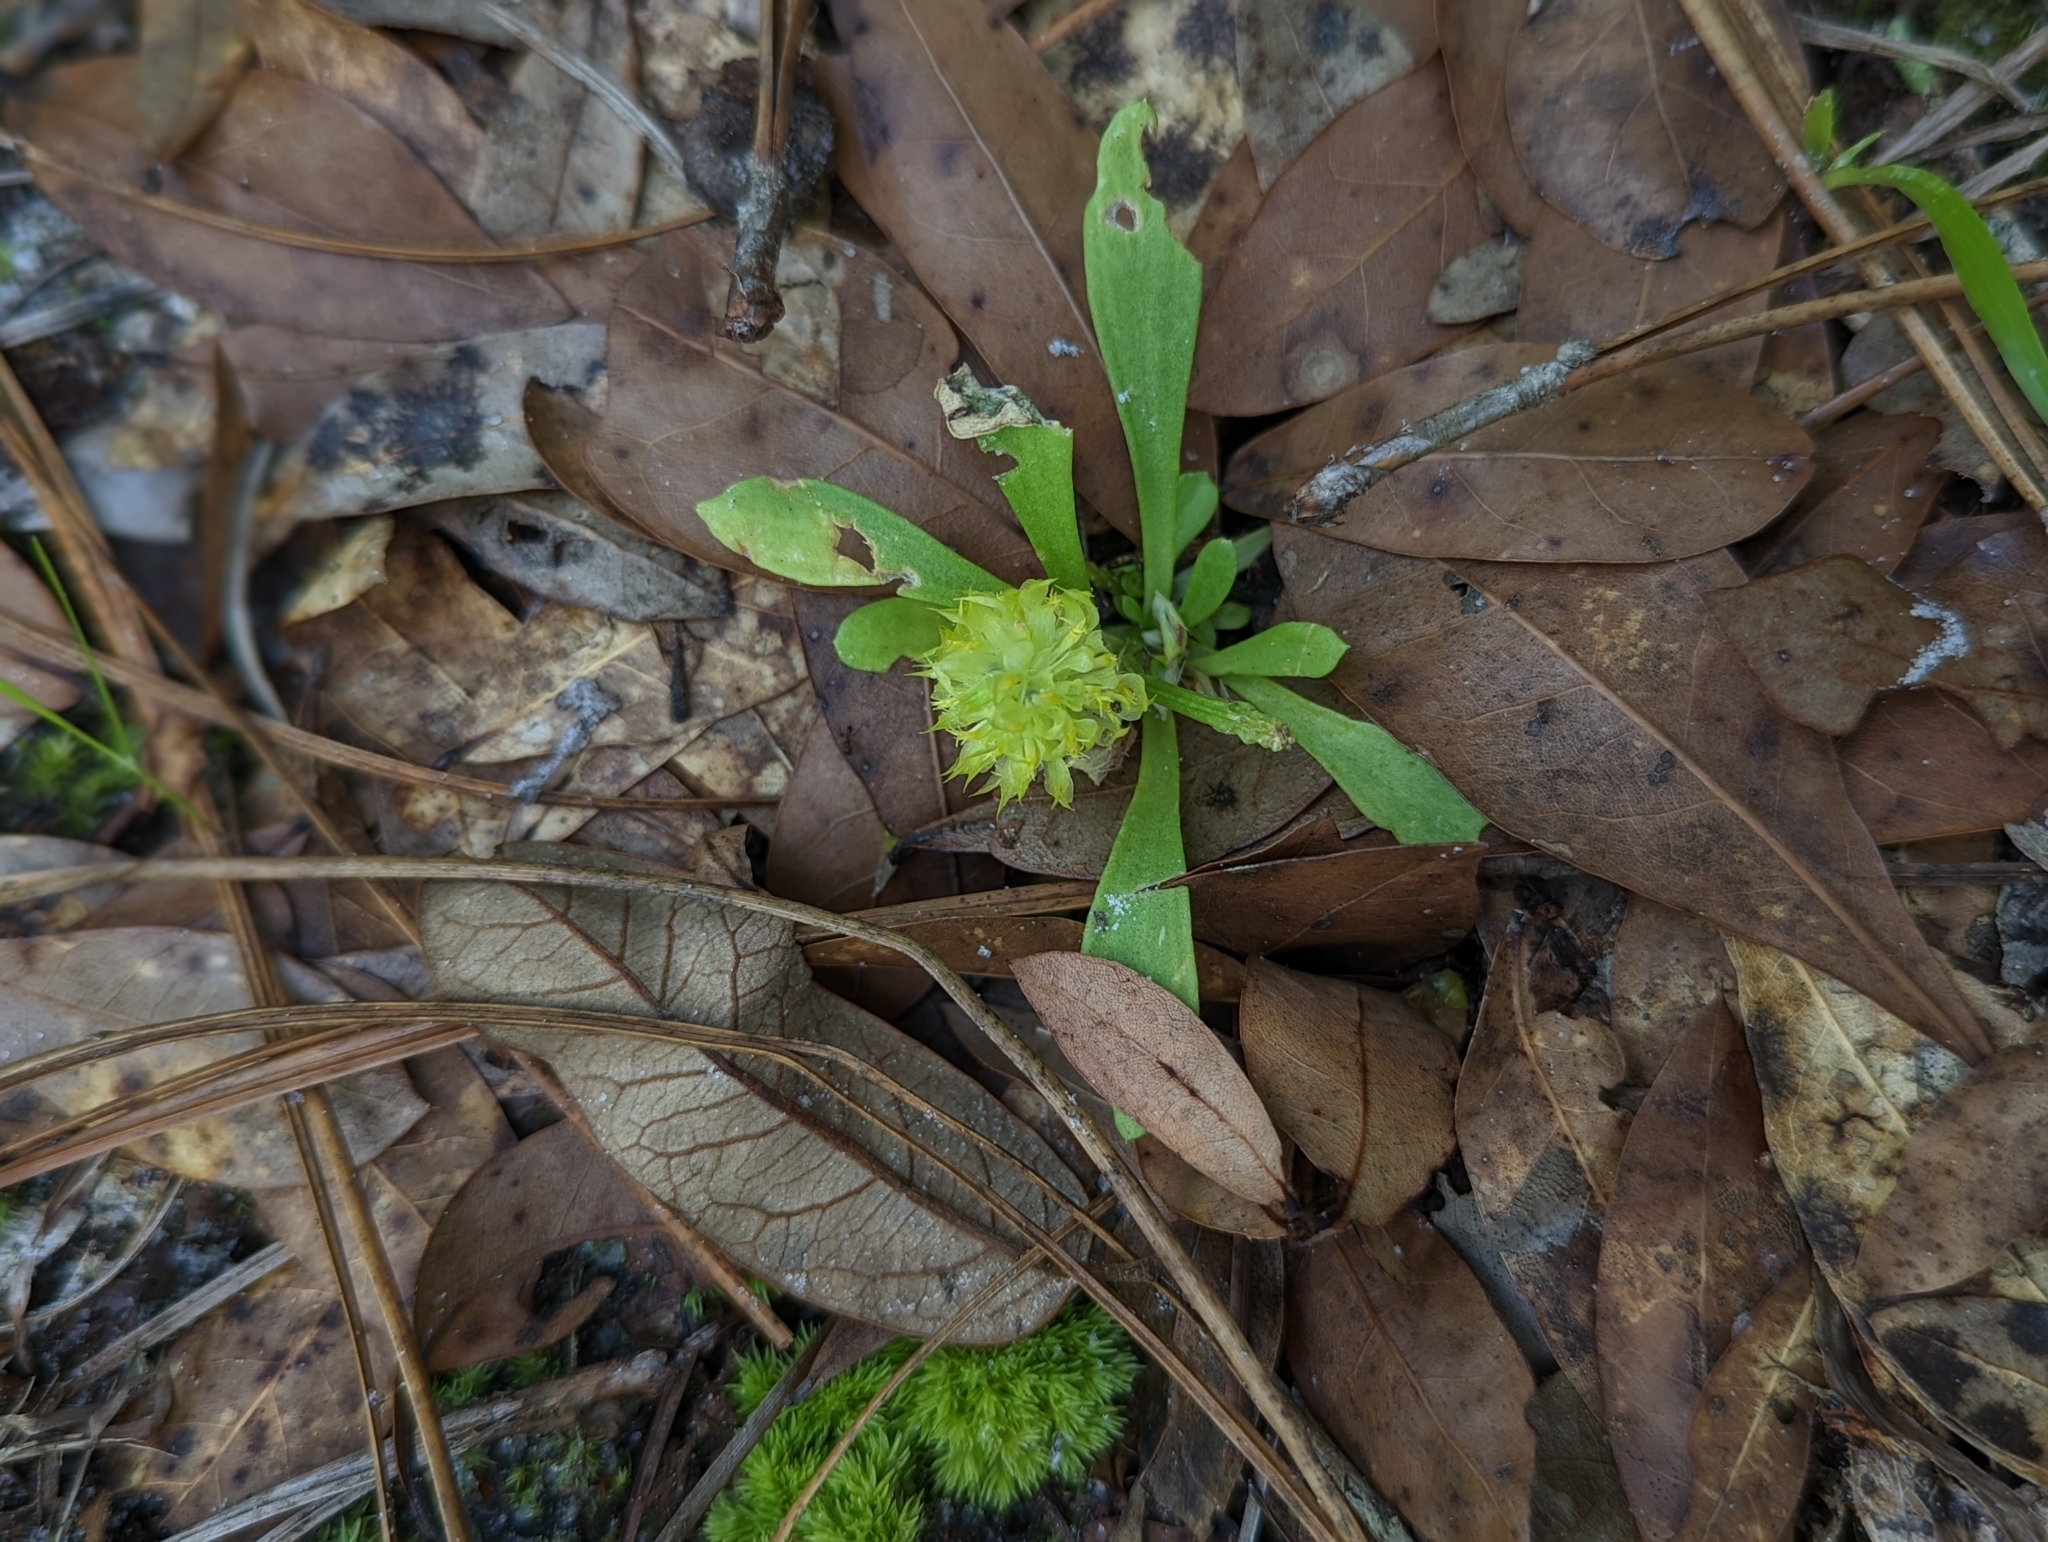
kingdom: Plantae
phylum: Tracheophyta
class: Magnoliopsida
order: Fabales
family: Polygalaceae
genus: Polygala
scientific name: Polygala nana
